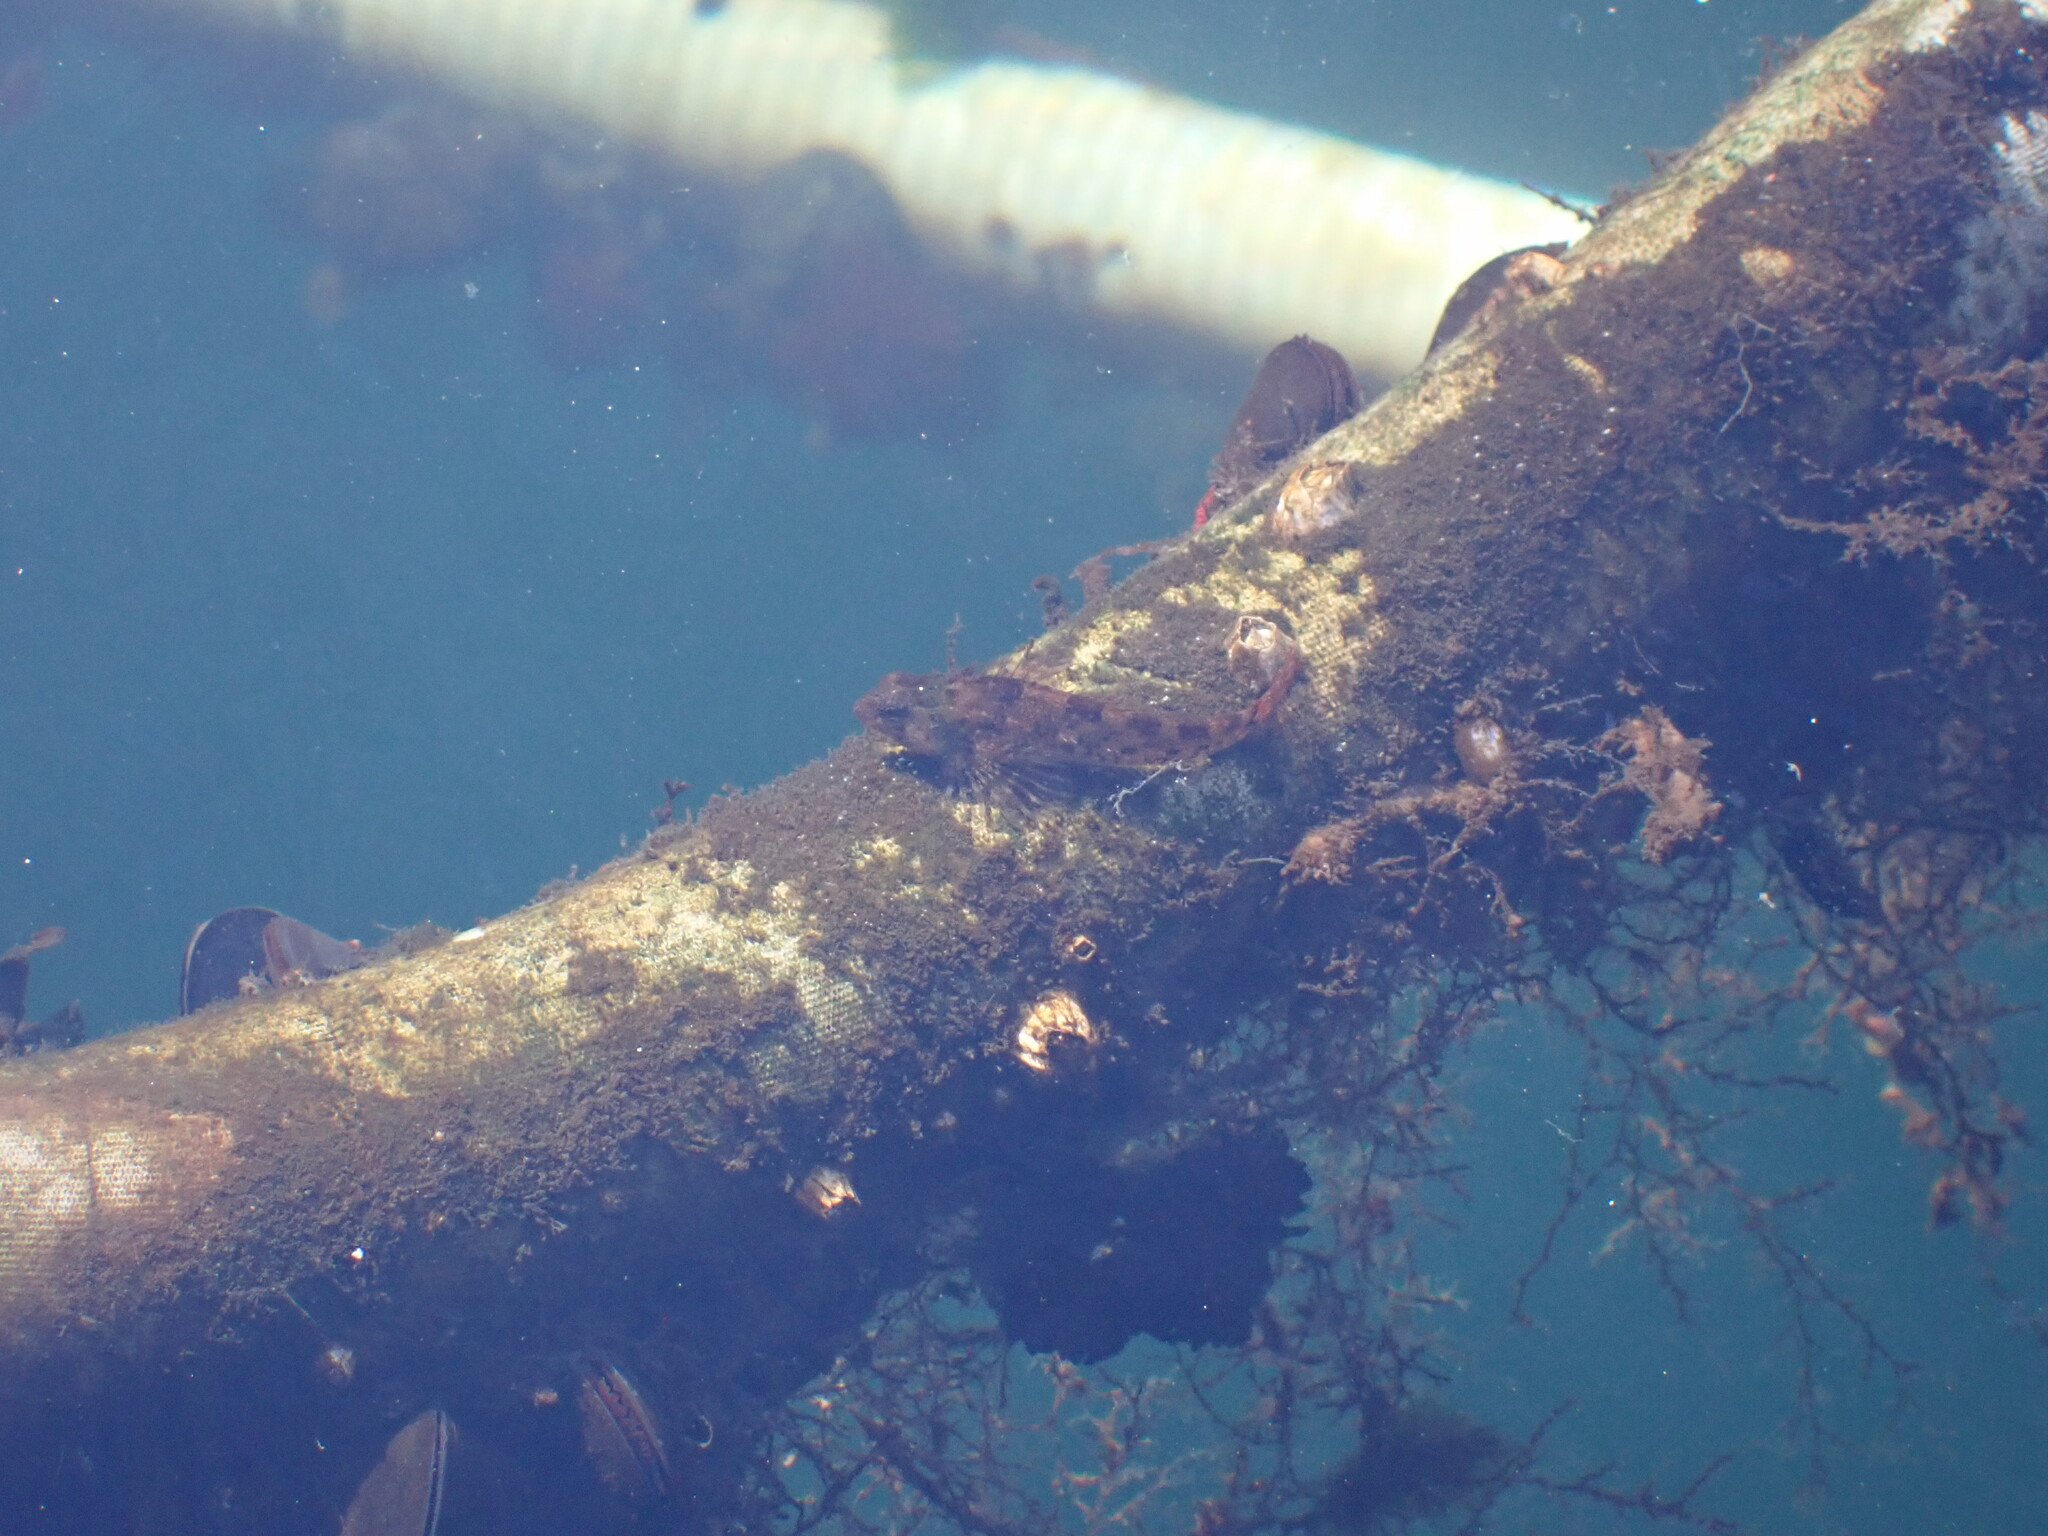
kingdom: Animalia
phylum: Chordata
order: Scorpaeniformes
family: Cottidae
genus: Oligocottus
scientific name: Oligocottus maculosus
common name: Tidepool sculpin
